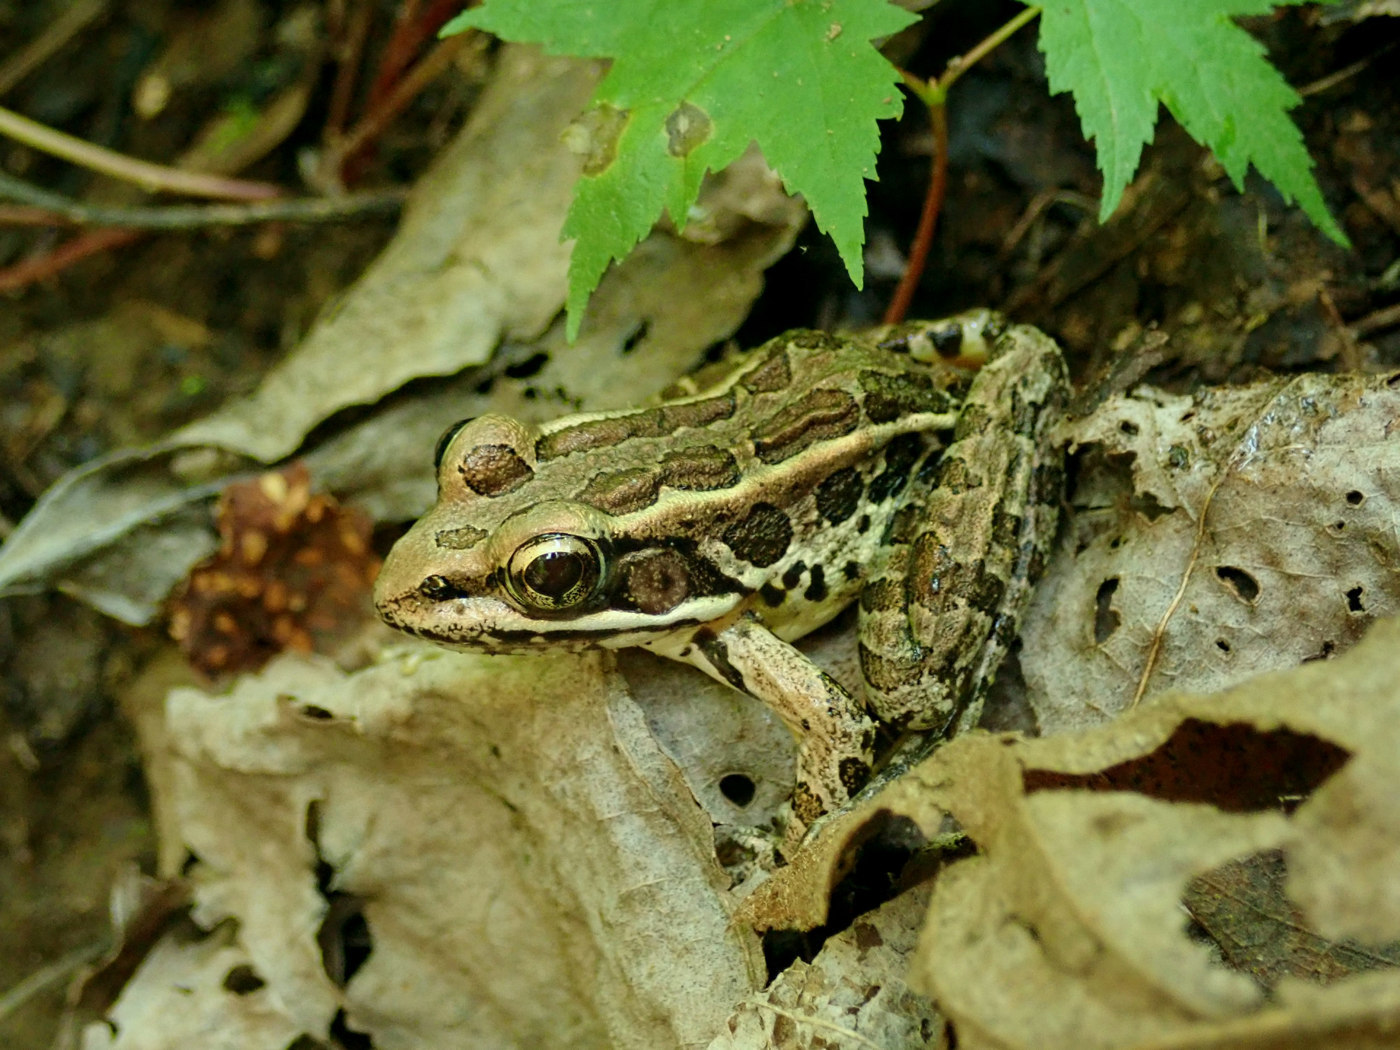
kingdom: Animalia
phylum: Chordata
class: Amphibia
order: Anura
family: Ranidae
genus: Lithobates
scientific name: Lithobates palustris
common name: Pickerel frog
